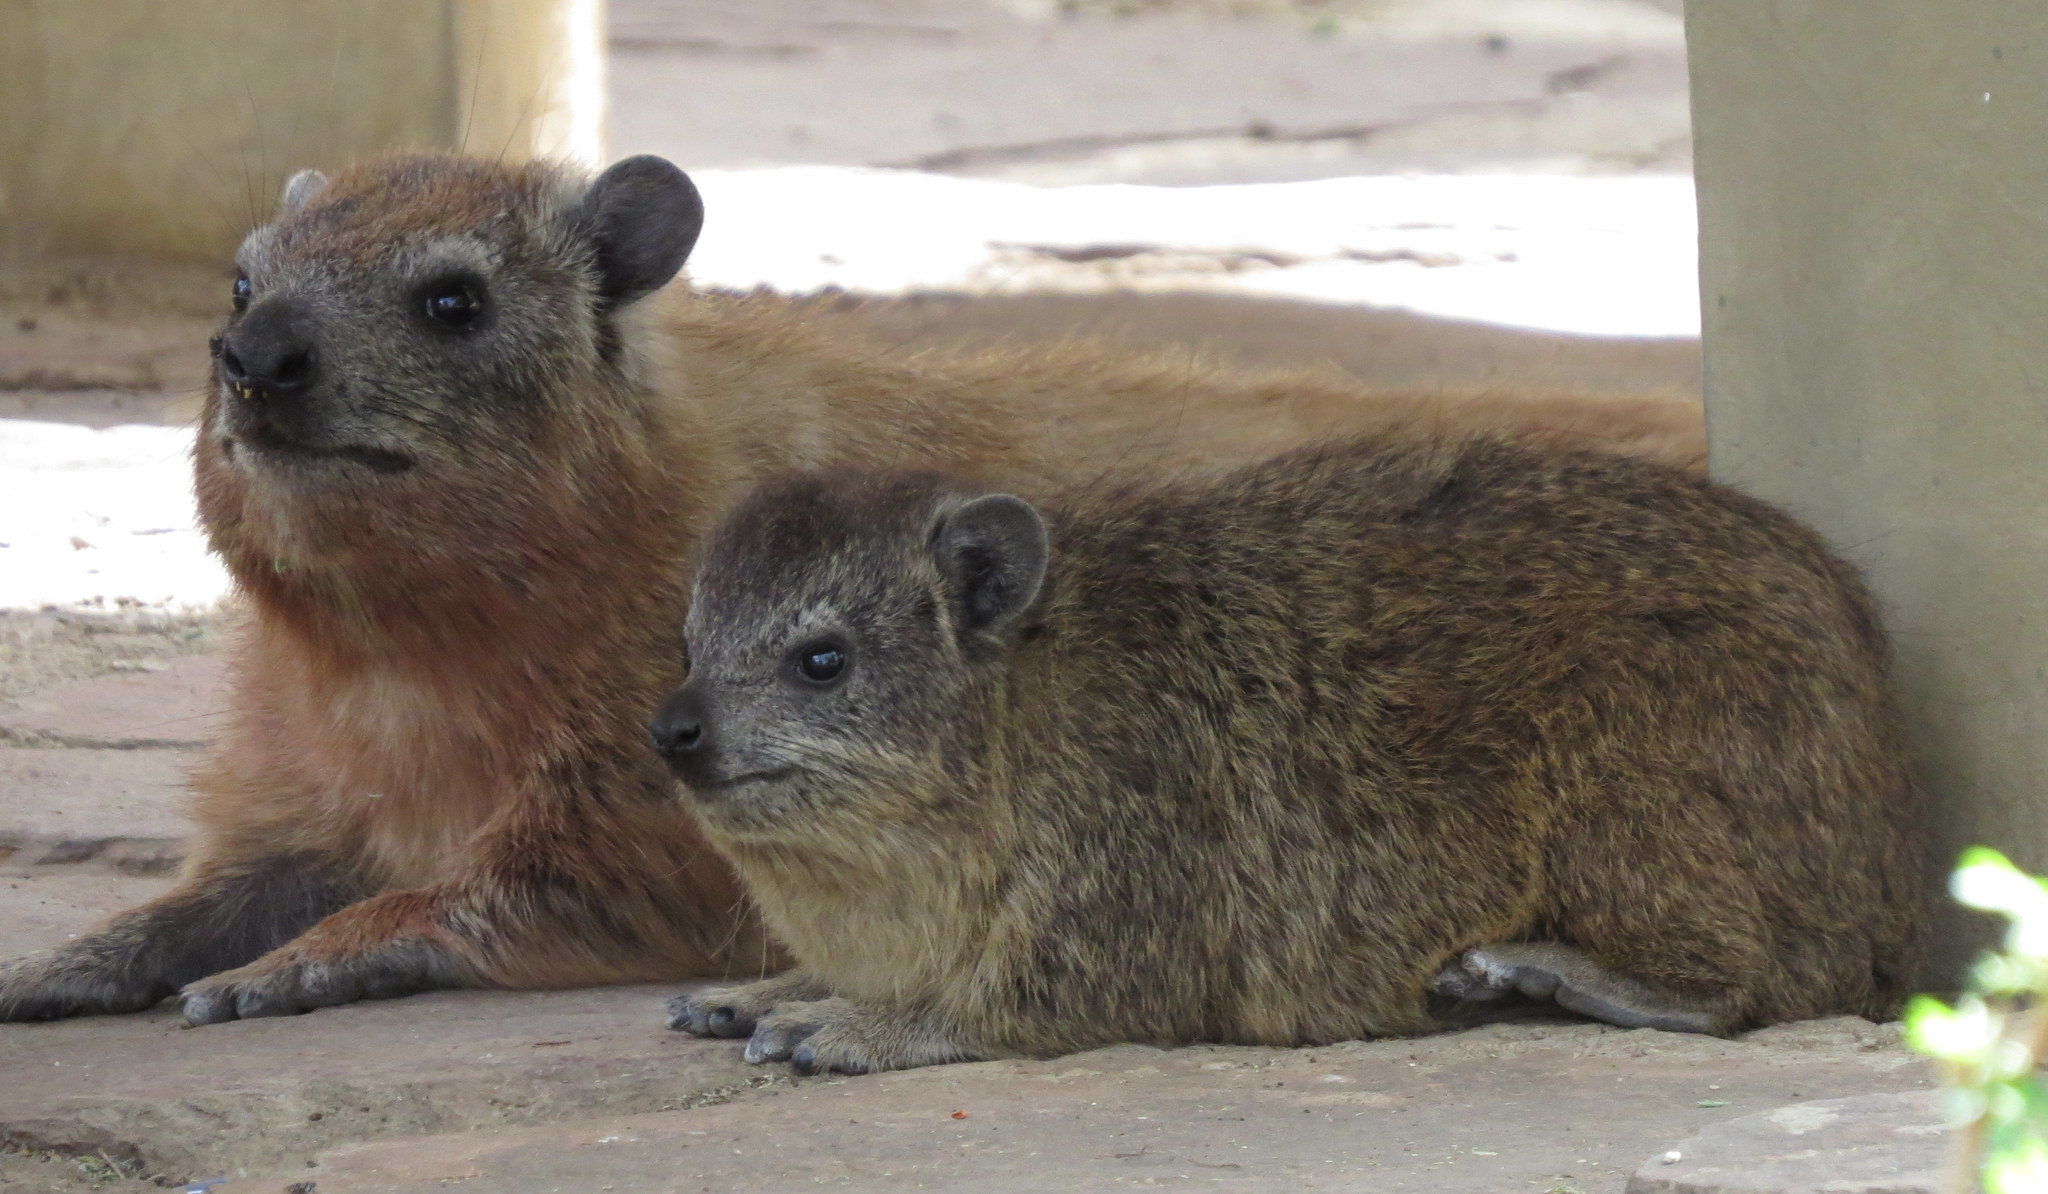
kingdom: Animalia
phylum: Chordata
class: Mammalia
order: Hyracoidea
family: Procaviidae
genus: Procavia
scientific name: Procavia capensis
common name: Rock hyrax
